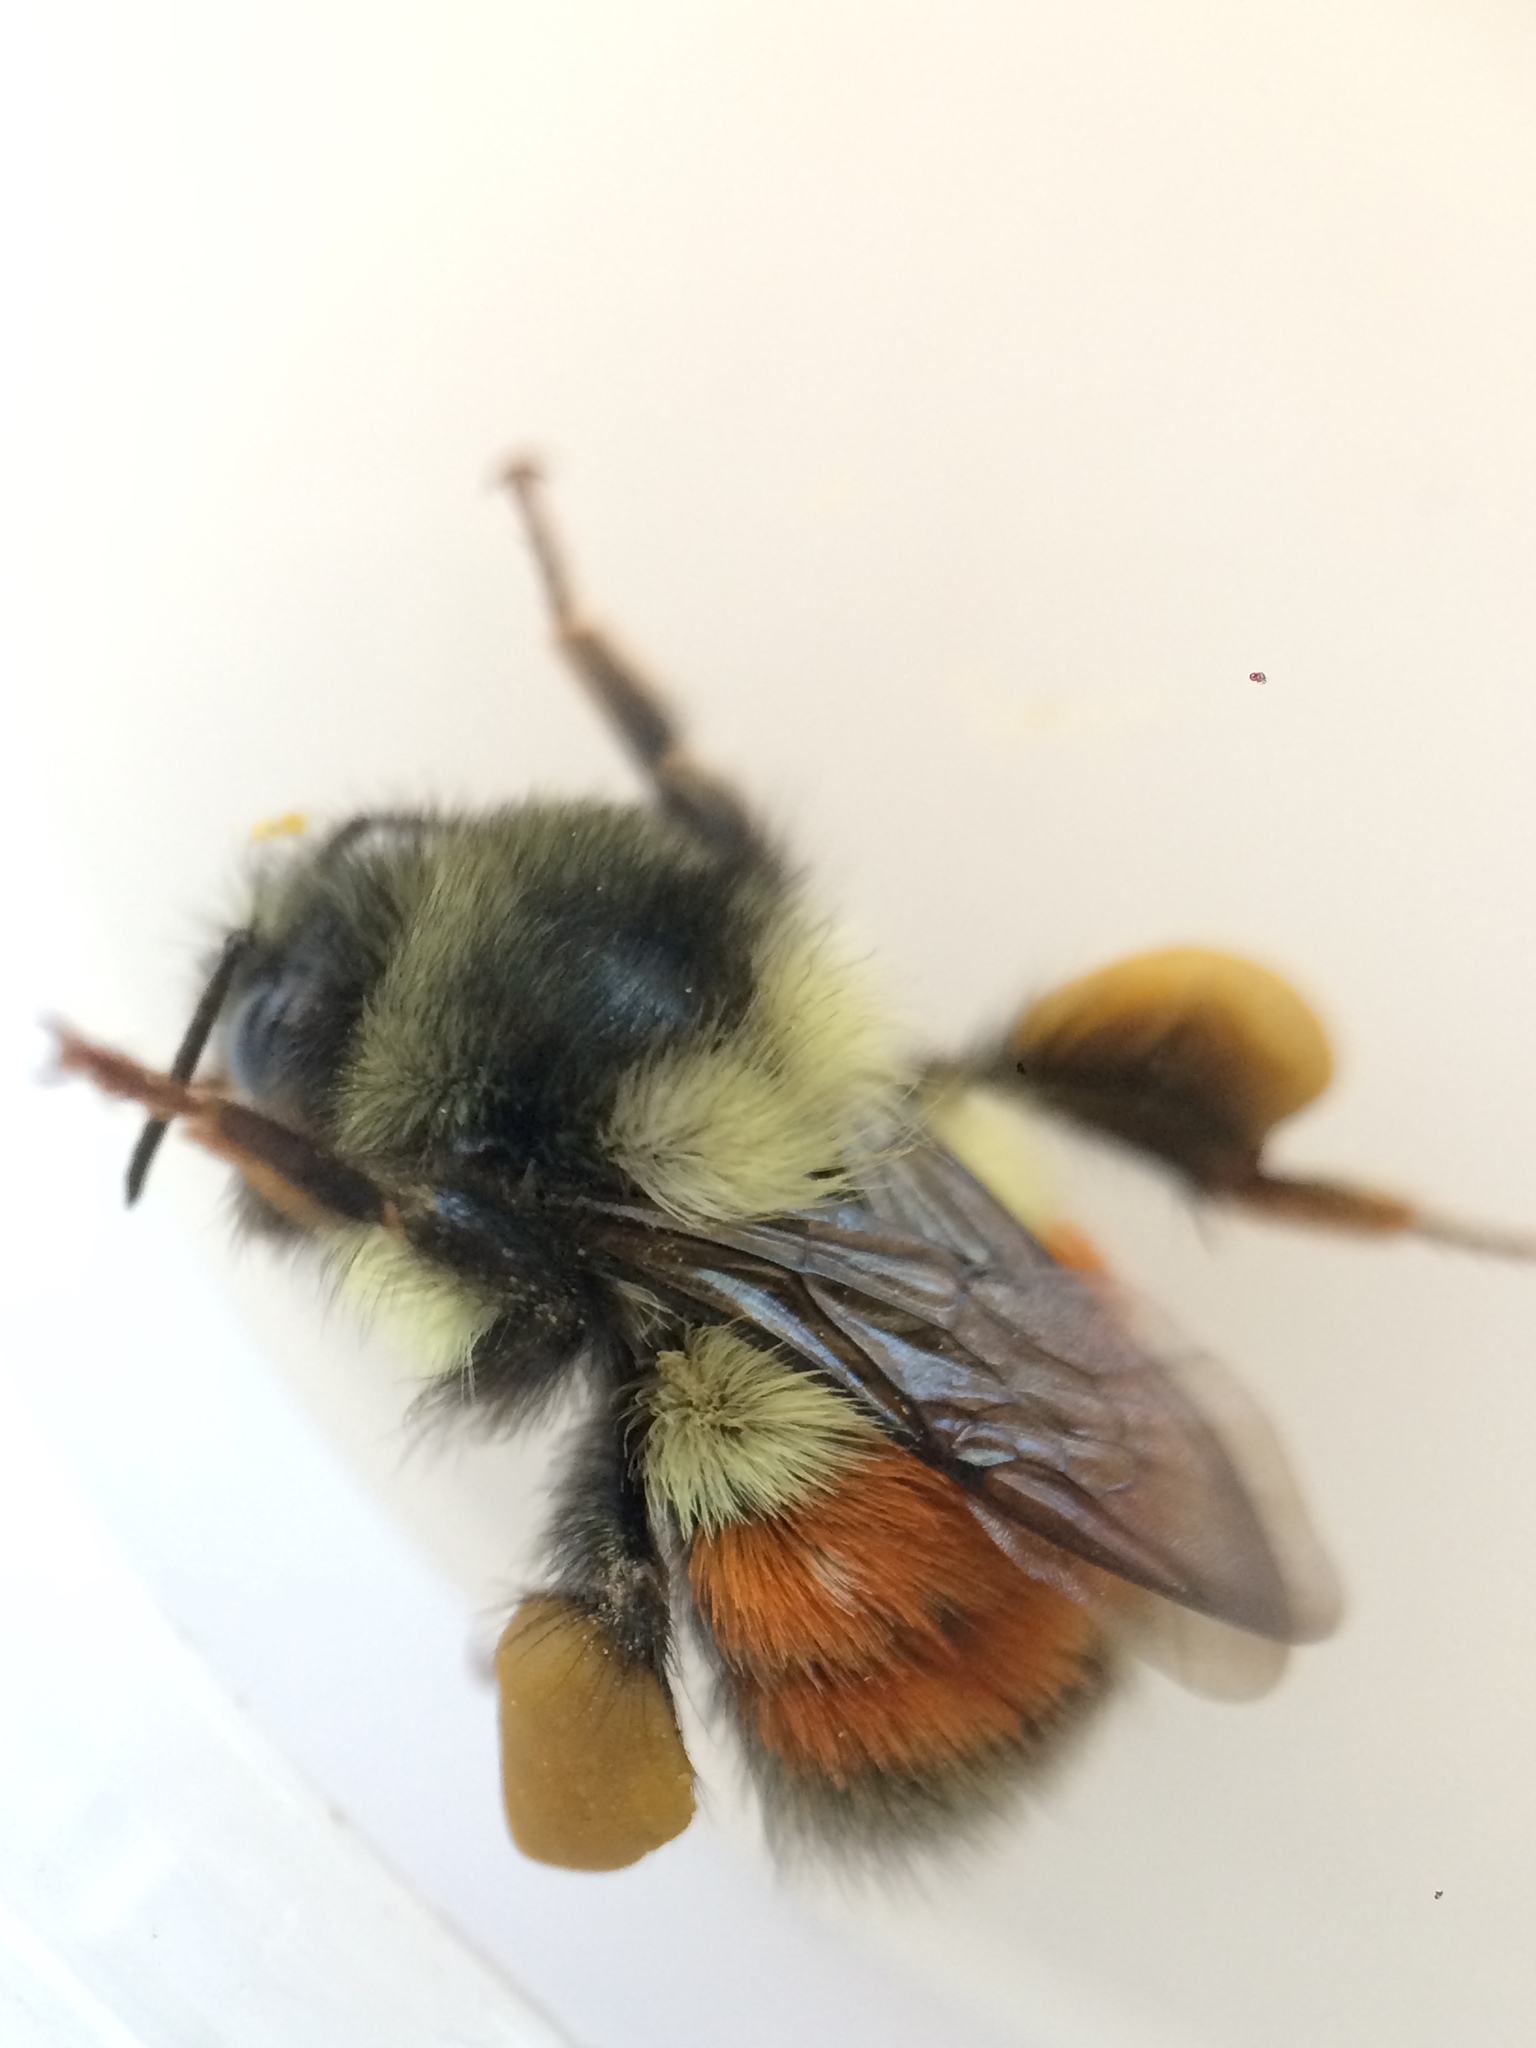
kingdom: Animalia
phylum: Arthropoda
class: Insecta
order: Hymenoptera
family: Apidae
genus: Bombus
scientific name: Bombus melanopygus
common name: Black tail bumble bee
